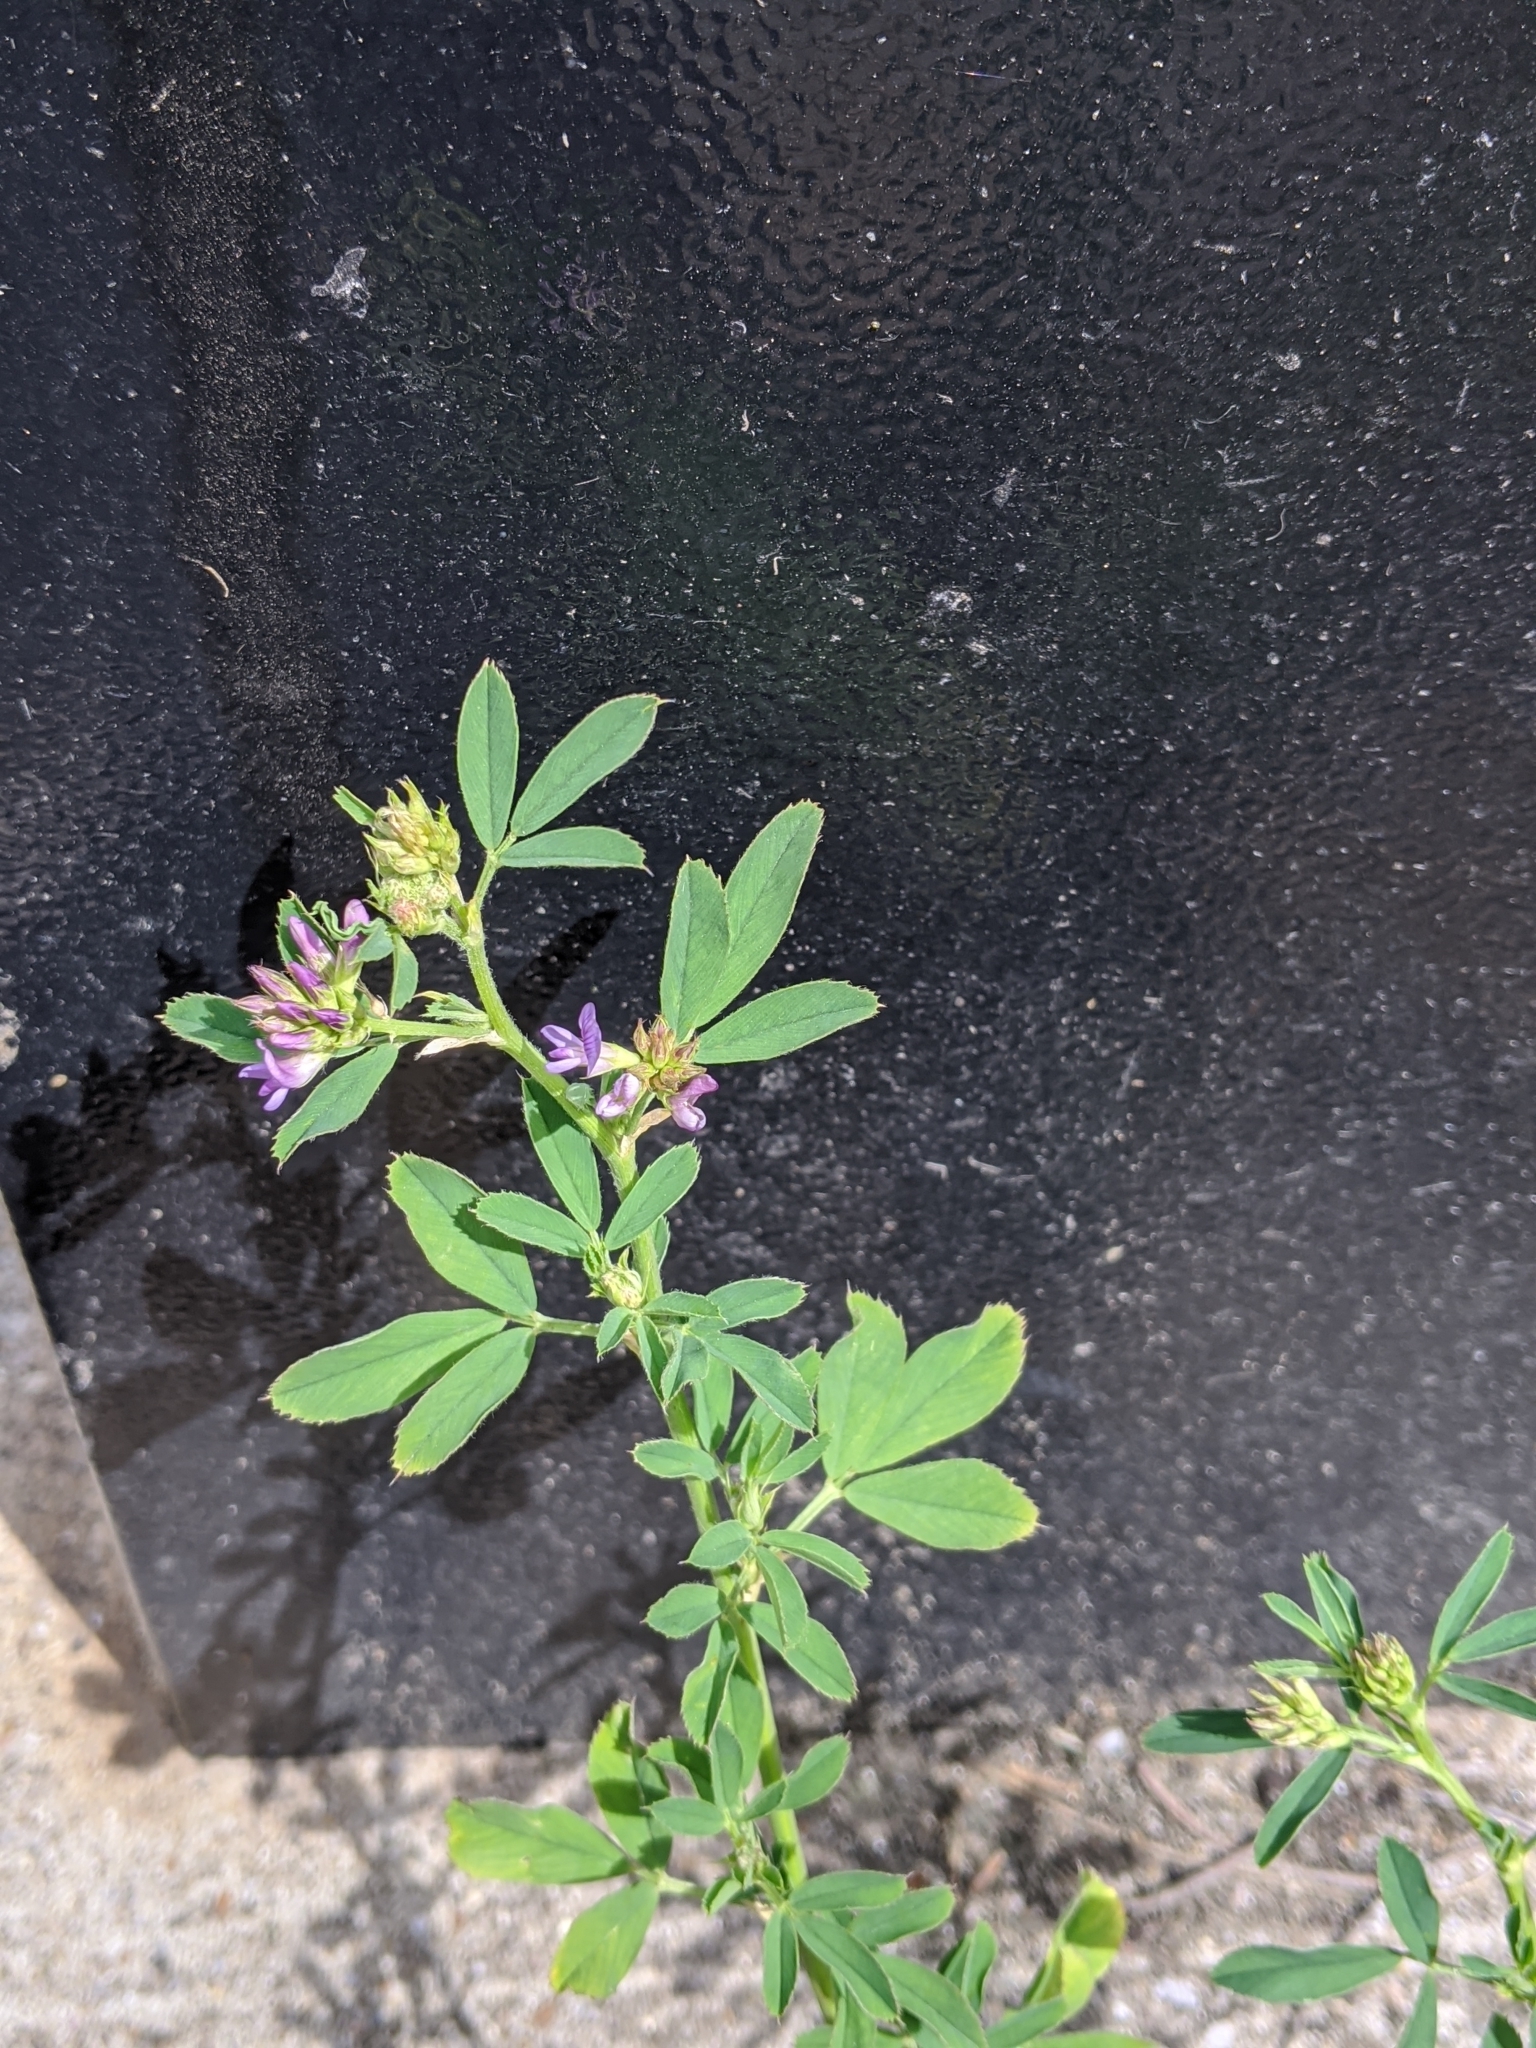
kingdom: Plantae
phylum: Tracheophyta
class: Magnoliopsida
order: Fabales
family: Fabaceae
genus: Medicago
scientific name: Medicago sativa
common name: Alfalfa
